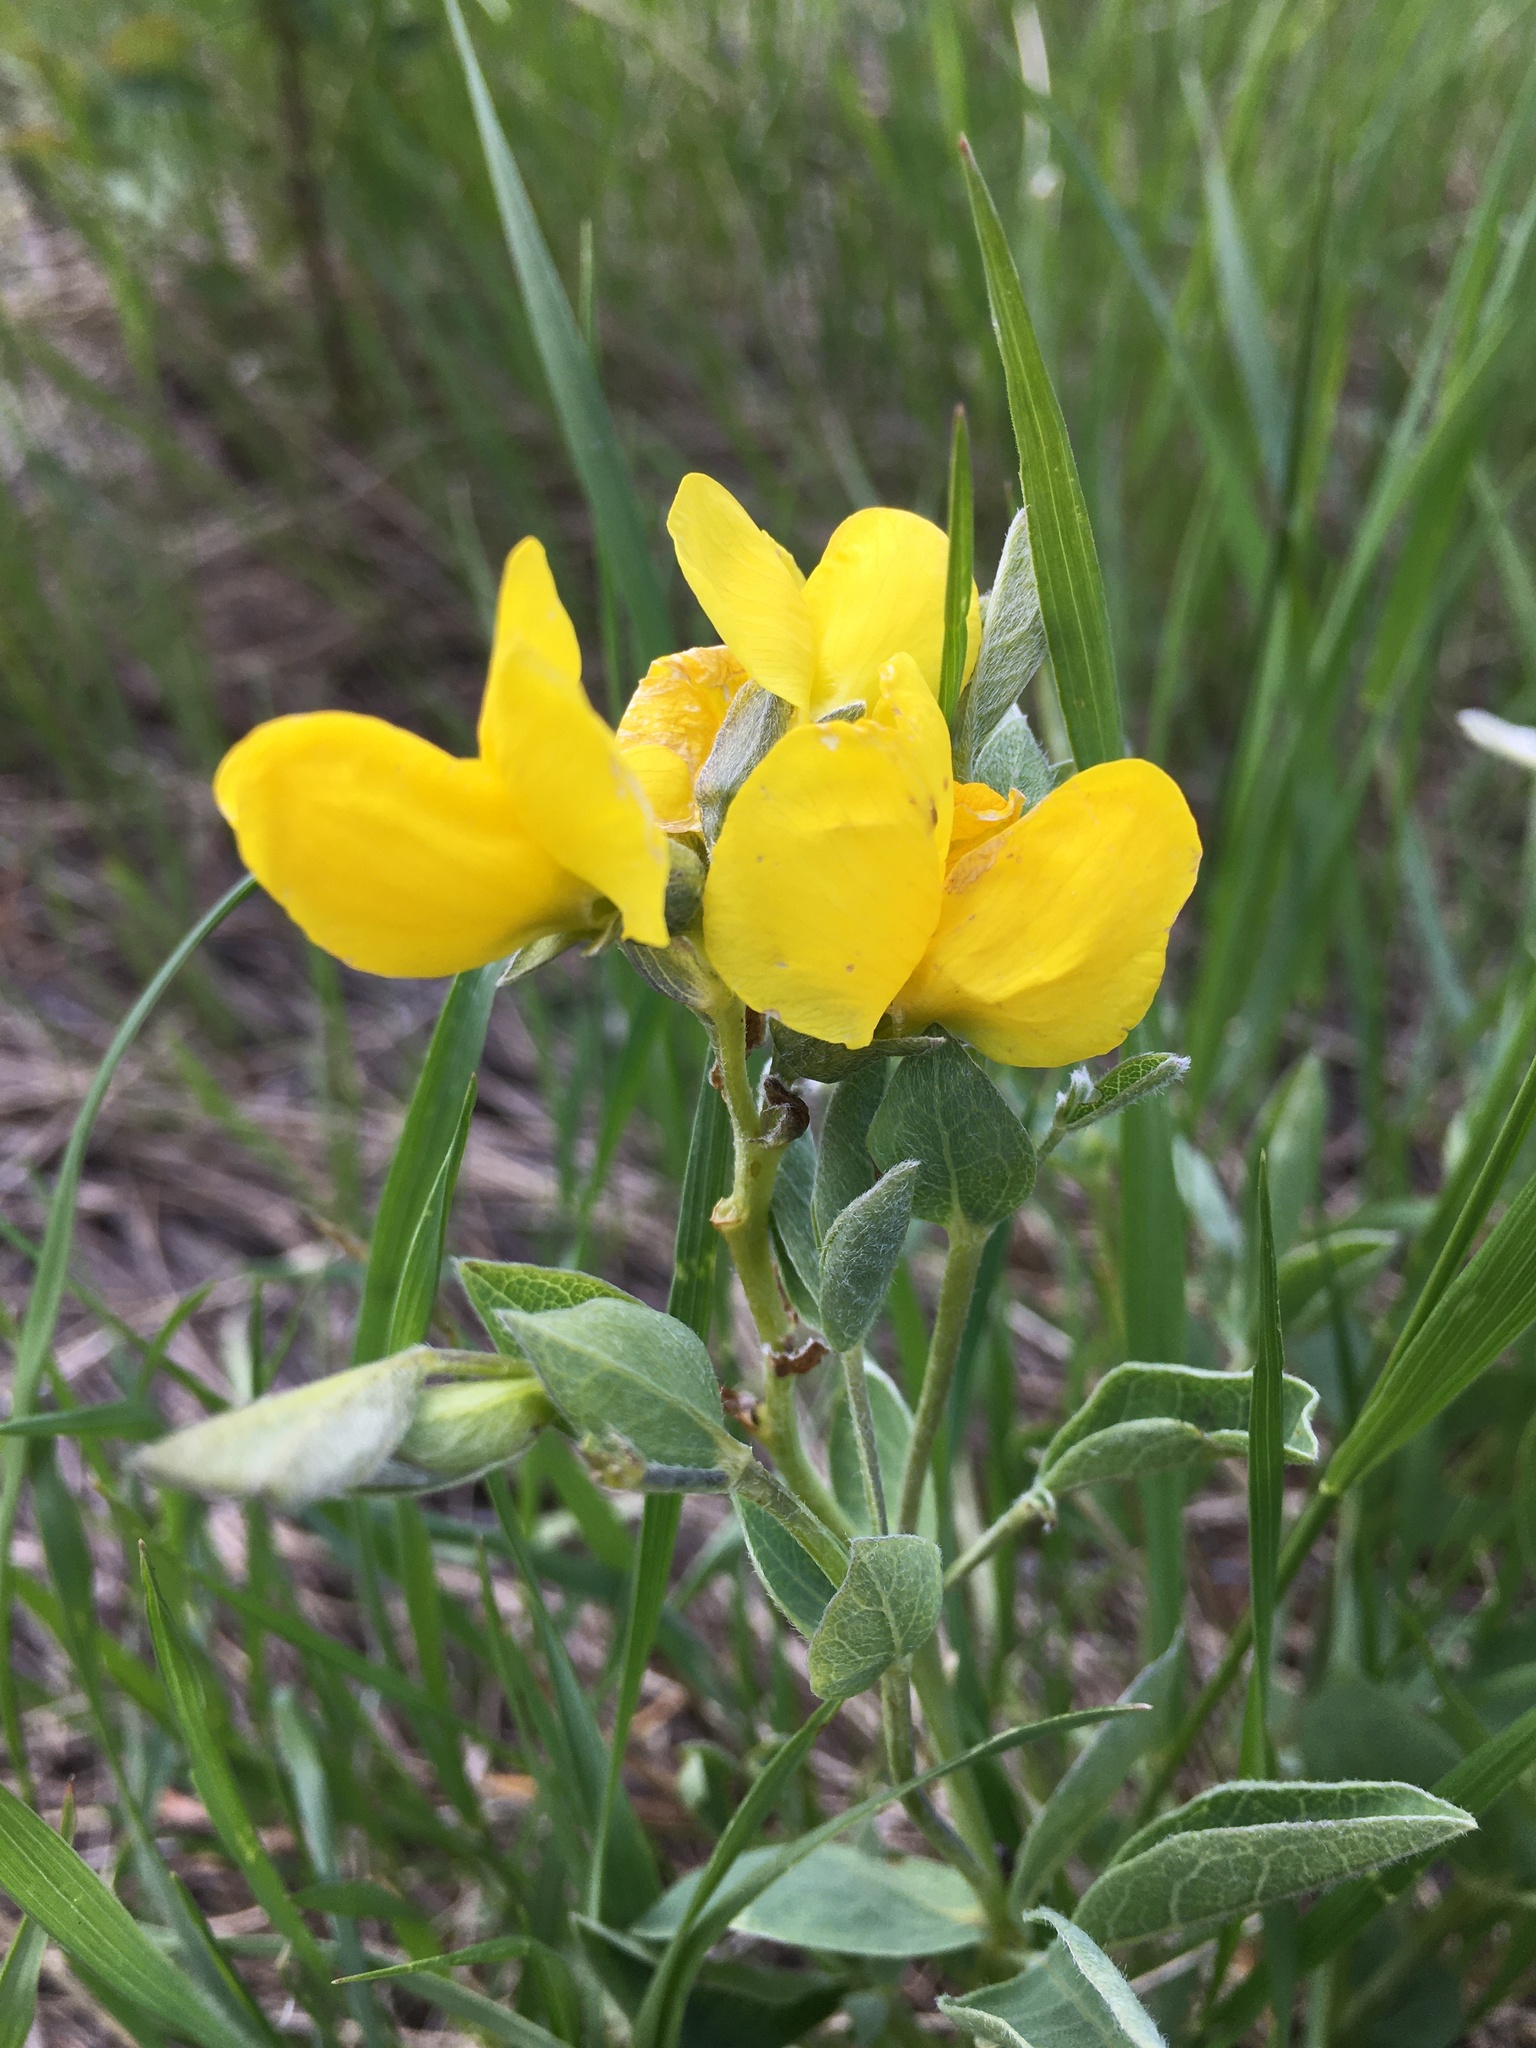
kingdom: Plantae
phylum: Tracheophyta
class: Magnoliopsida
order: Fabales
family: Fabaceae
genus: Thermopsis
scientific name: Thermopsis rhombifolia
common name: Circle-pod-pea
